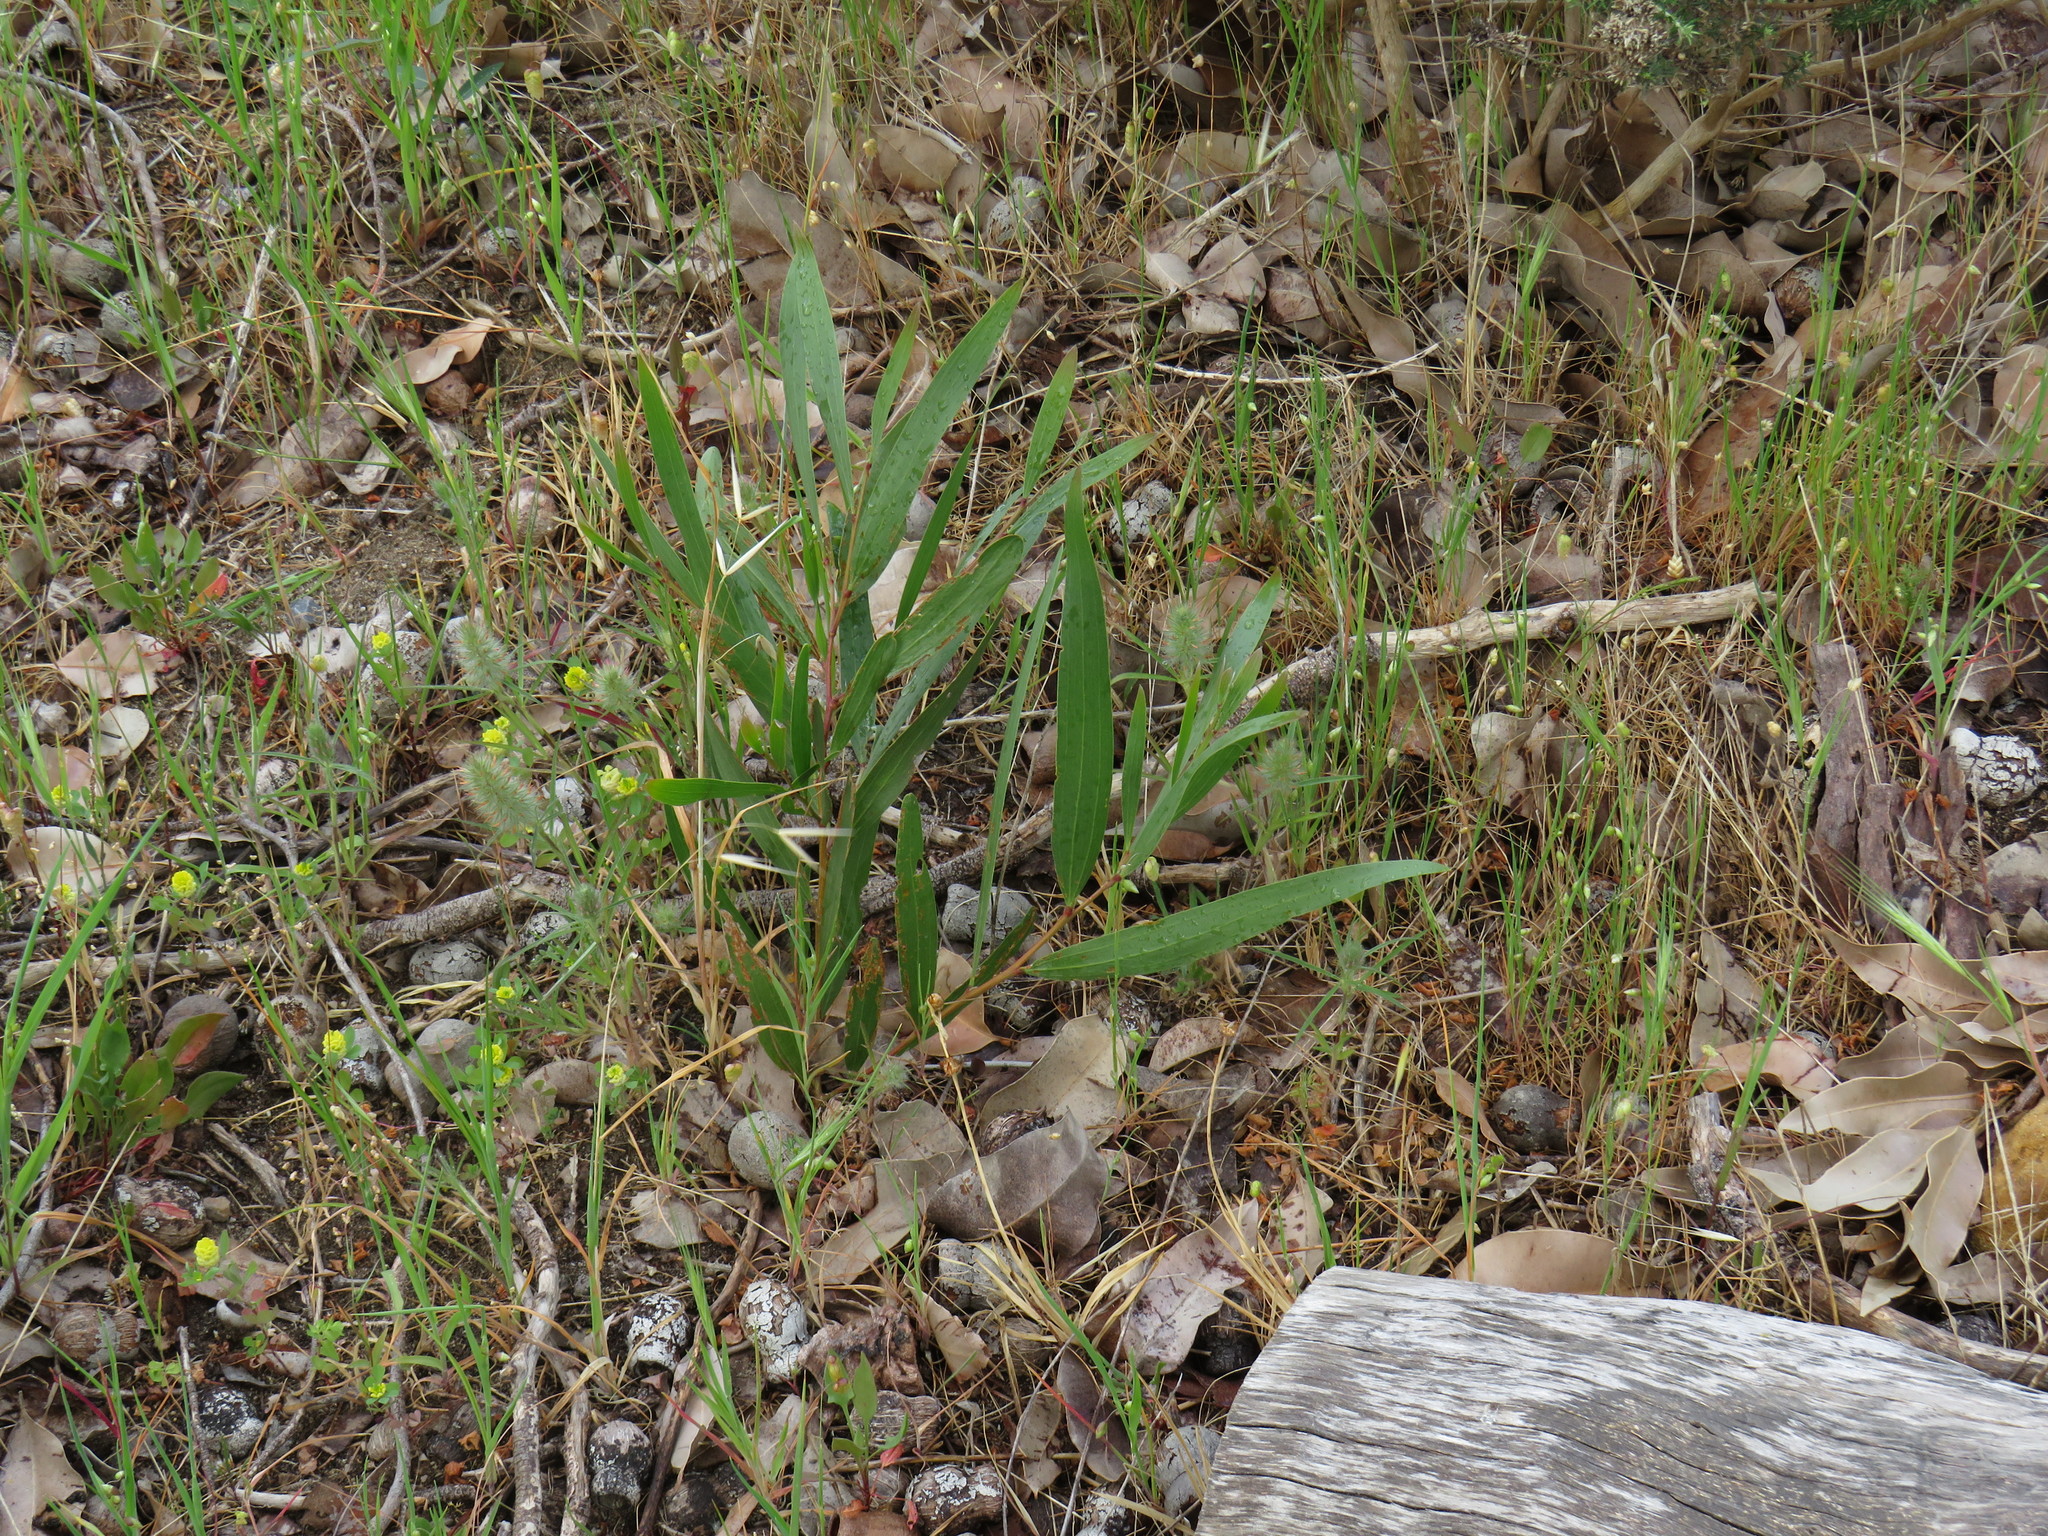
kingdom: Plantae
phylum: Tracheophyta
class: Magnoliopsida
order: Fabales
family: Fabaceae
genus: Acacia
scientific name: Acacia longifolia
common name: Sydney golden wattle
